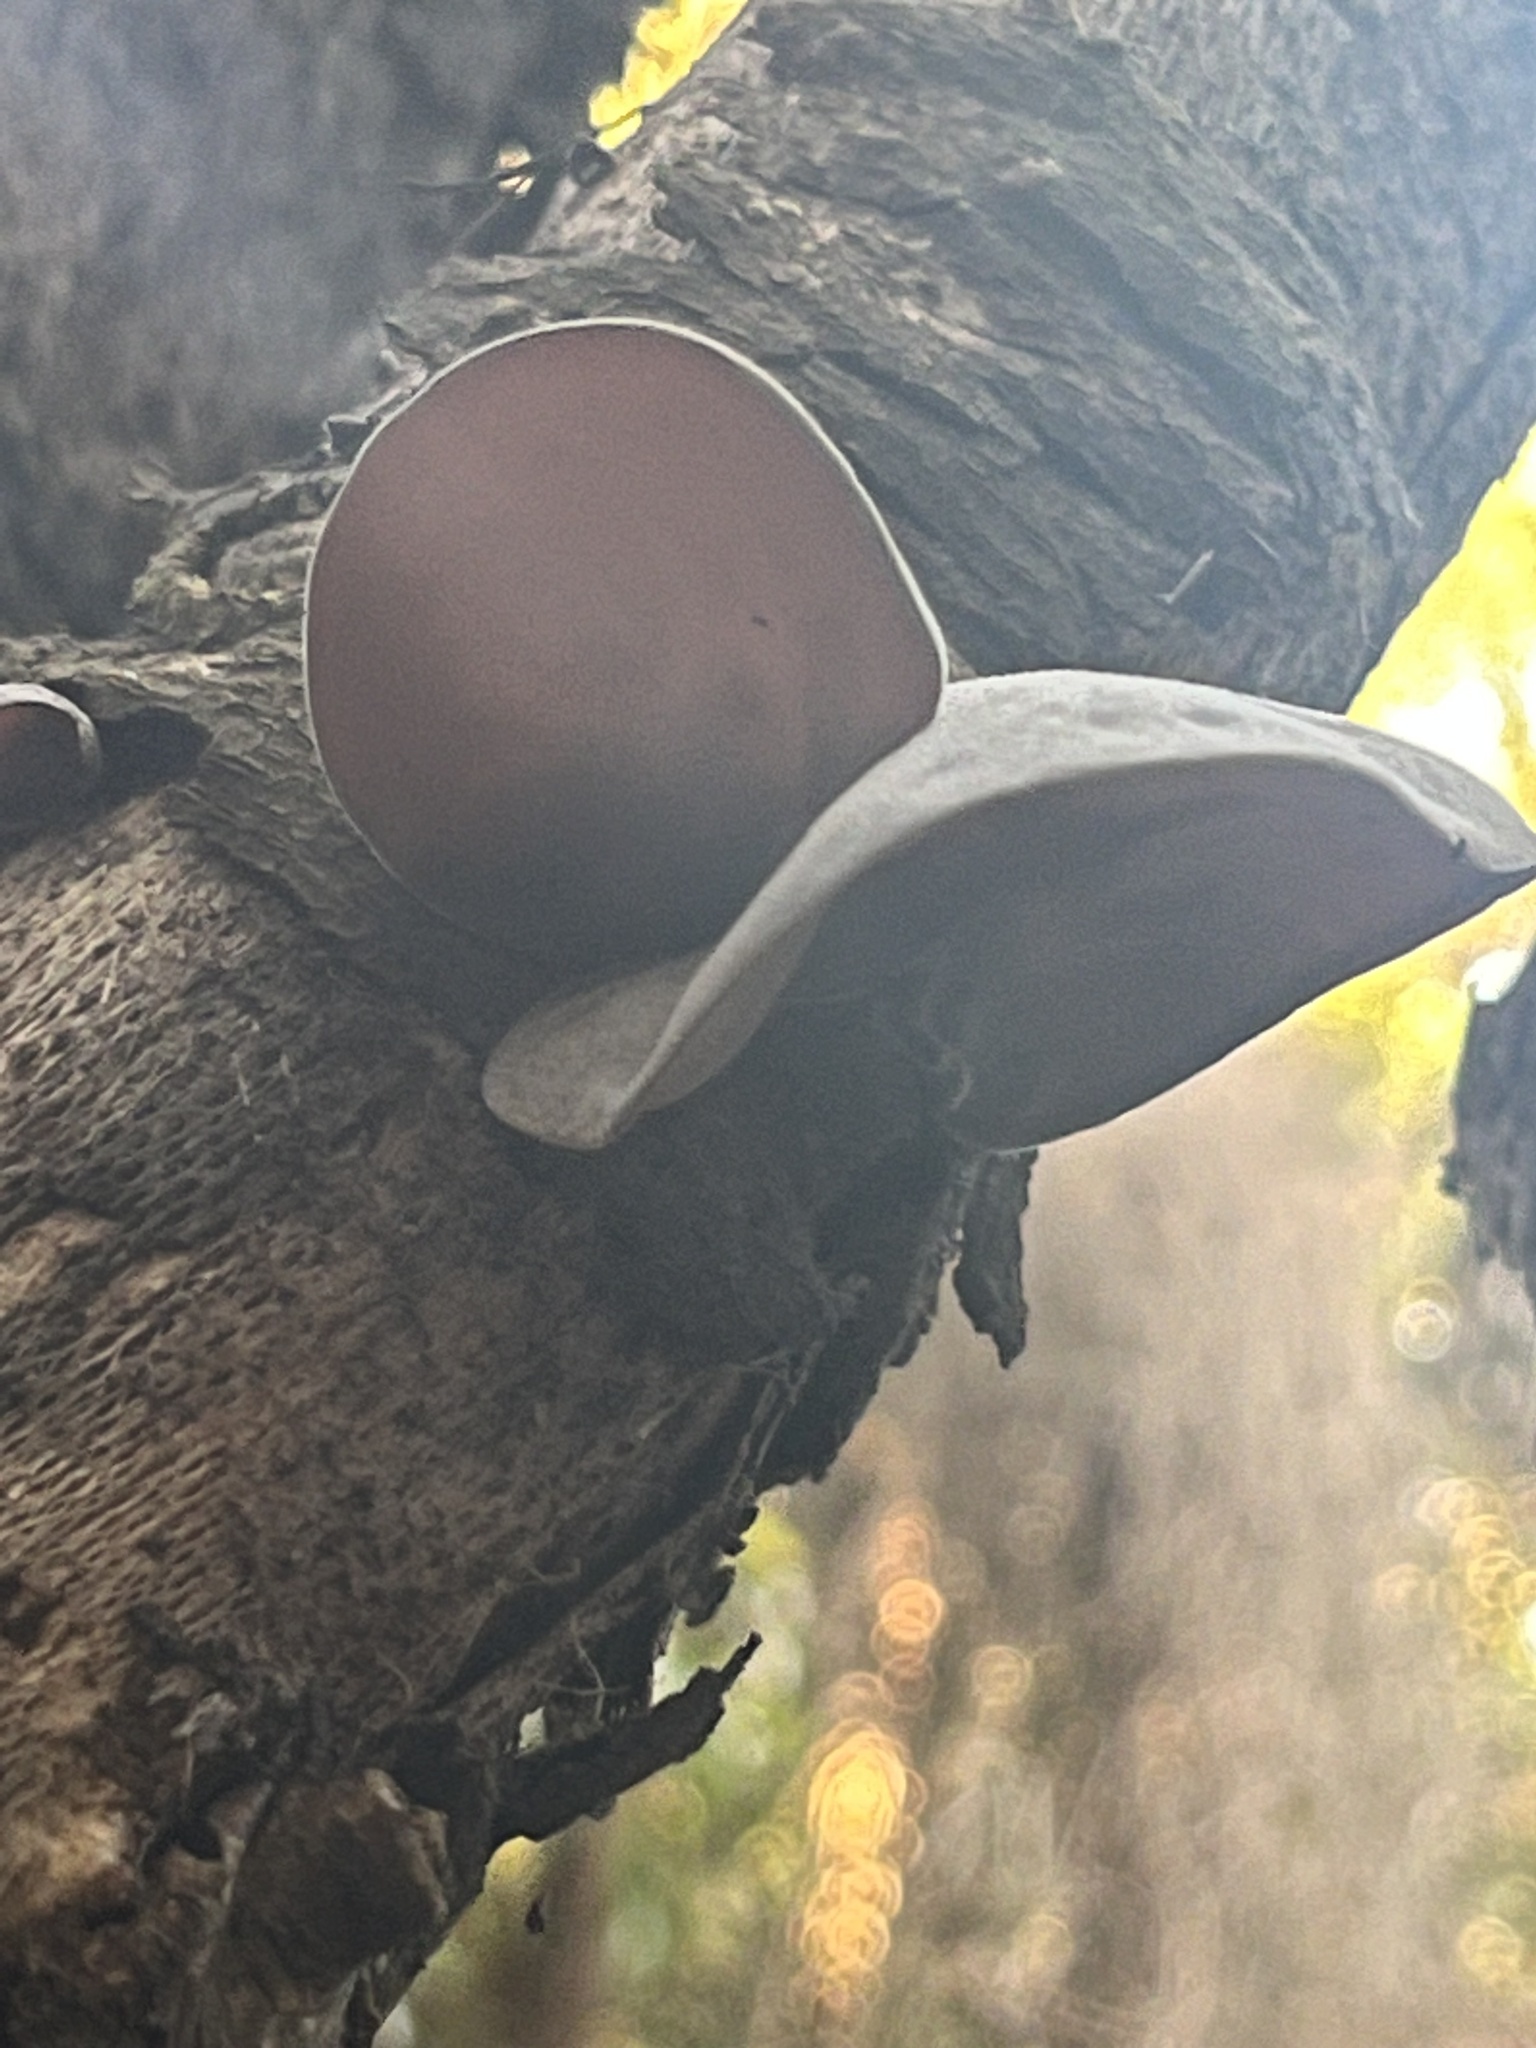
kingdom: Fungi
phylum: Basidiomycota
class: Agaricomycetes
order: Auriculariales
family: Auriculariaceae
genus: Auricularia
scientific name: Auricularia cornea
